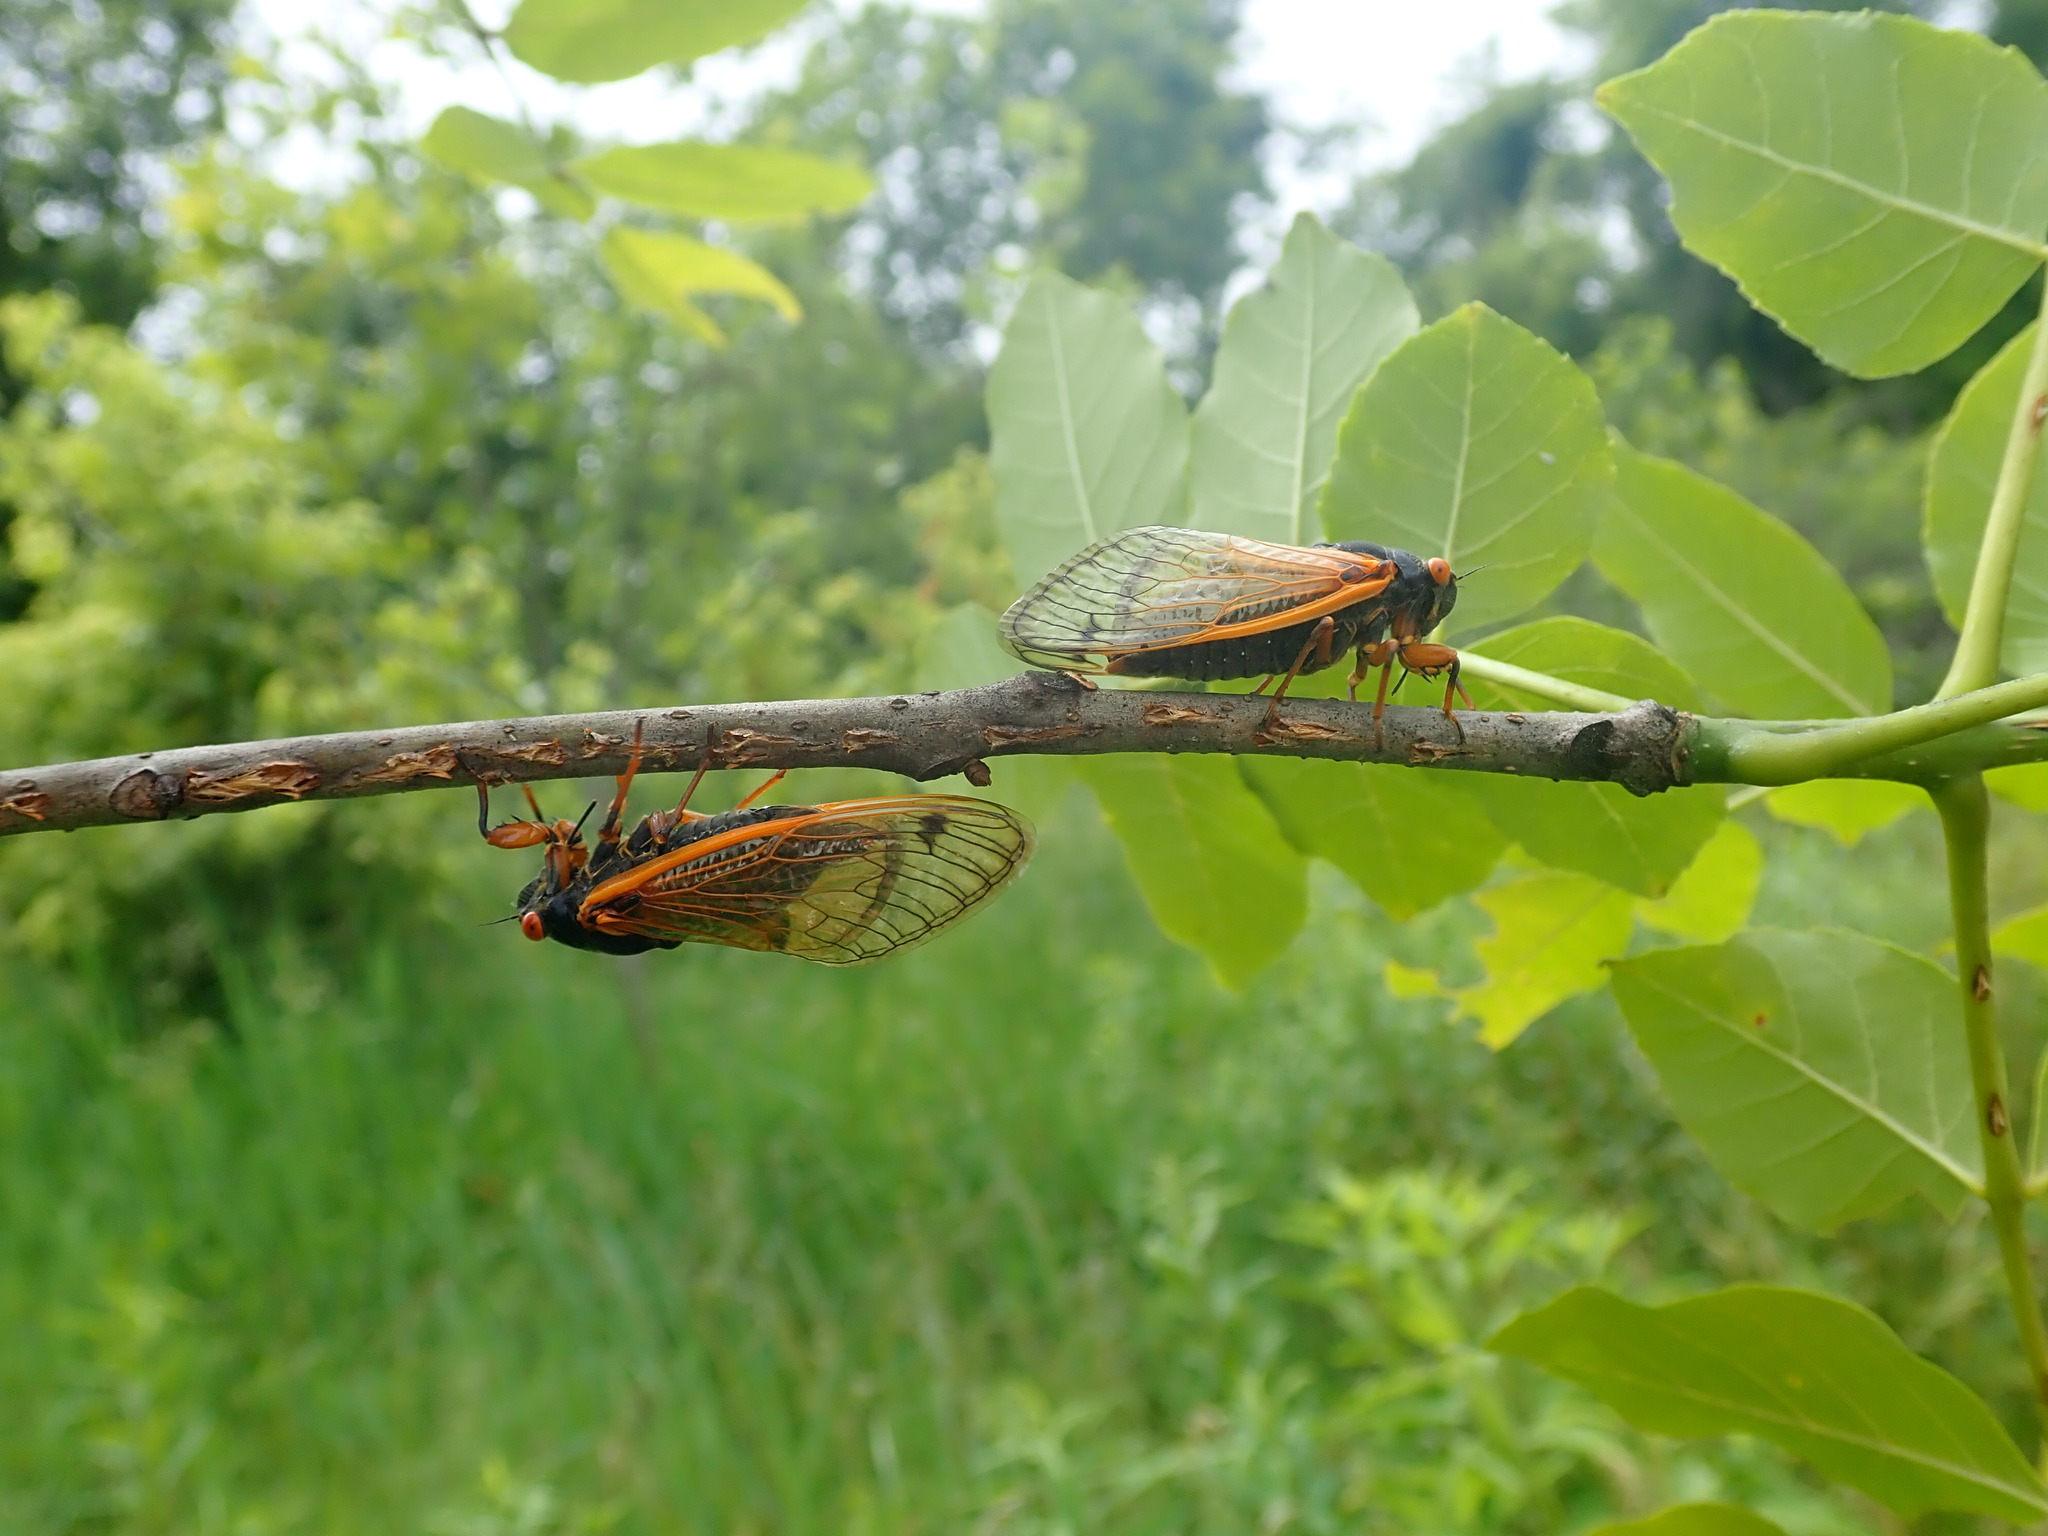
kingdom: Animalia
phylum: Arthropoda
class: Insecta
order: Hemiptera
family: Cicadidae
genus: Magicicada
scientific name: Magicicada cassini
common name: Cassin's 17-year cicada
